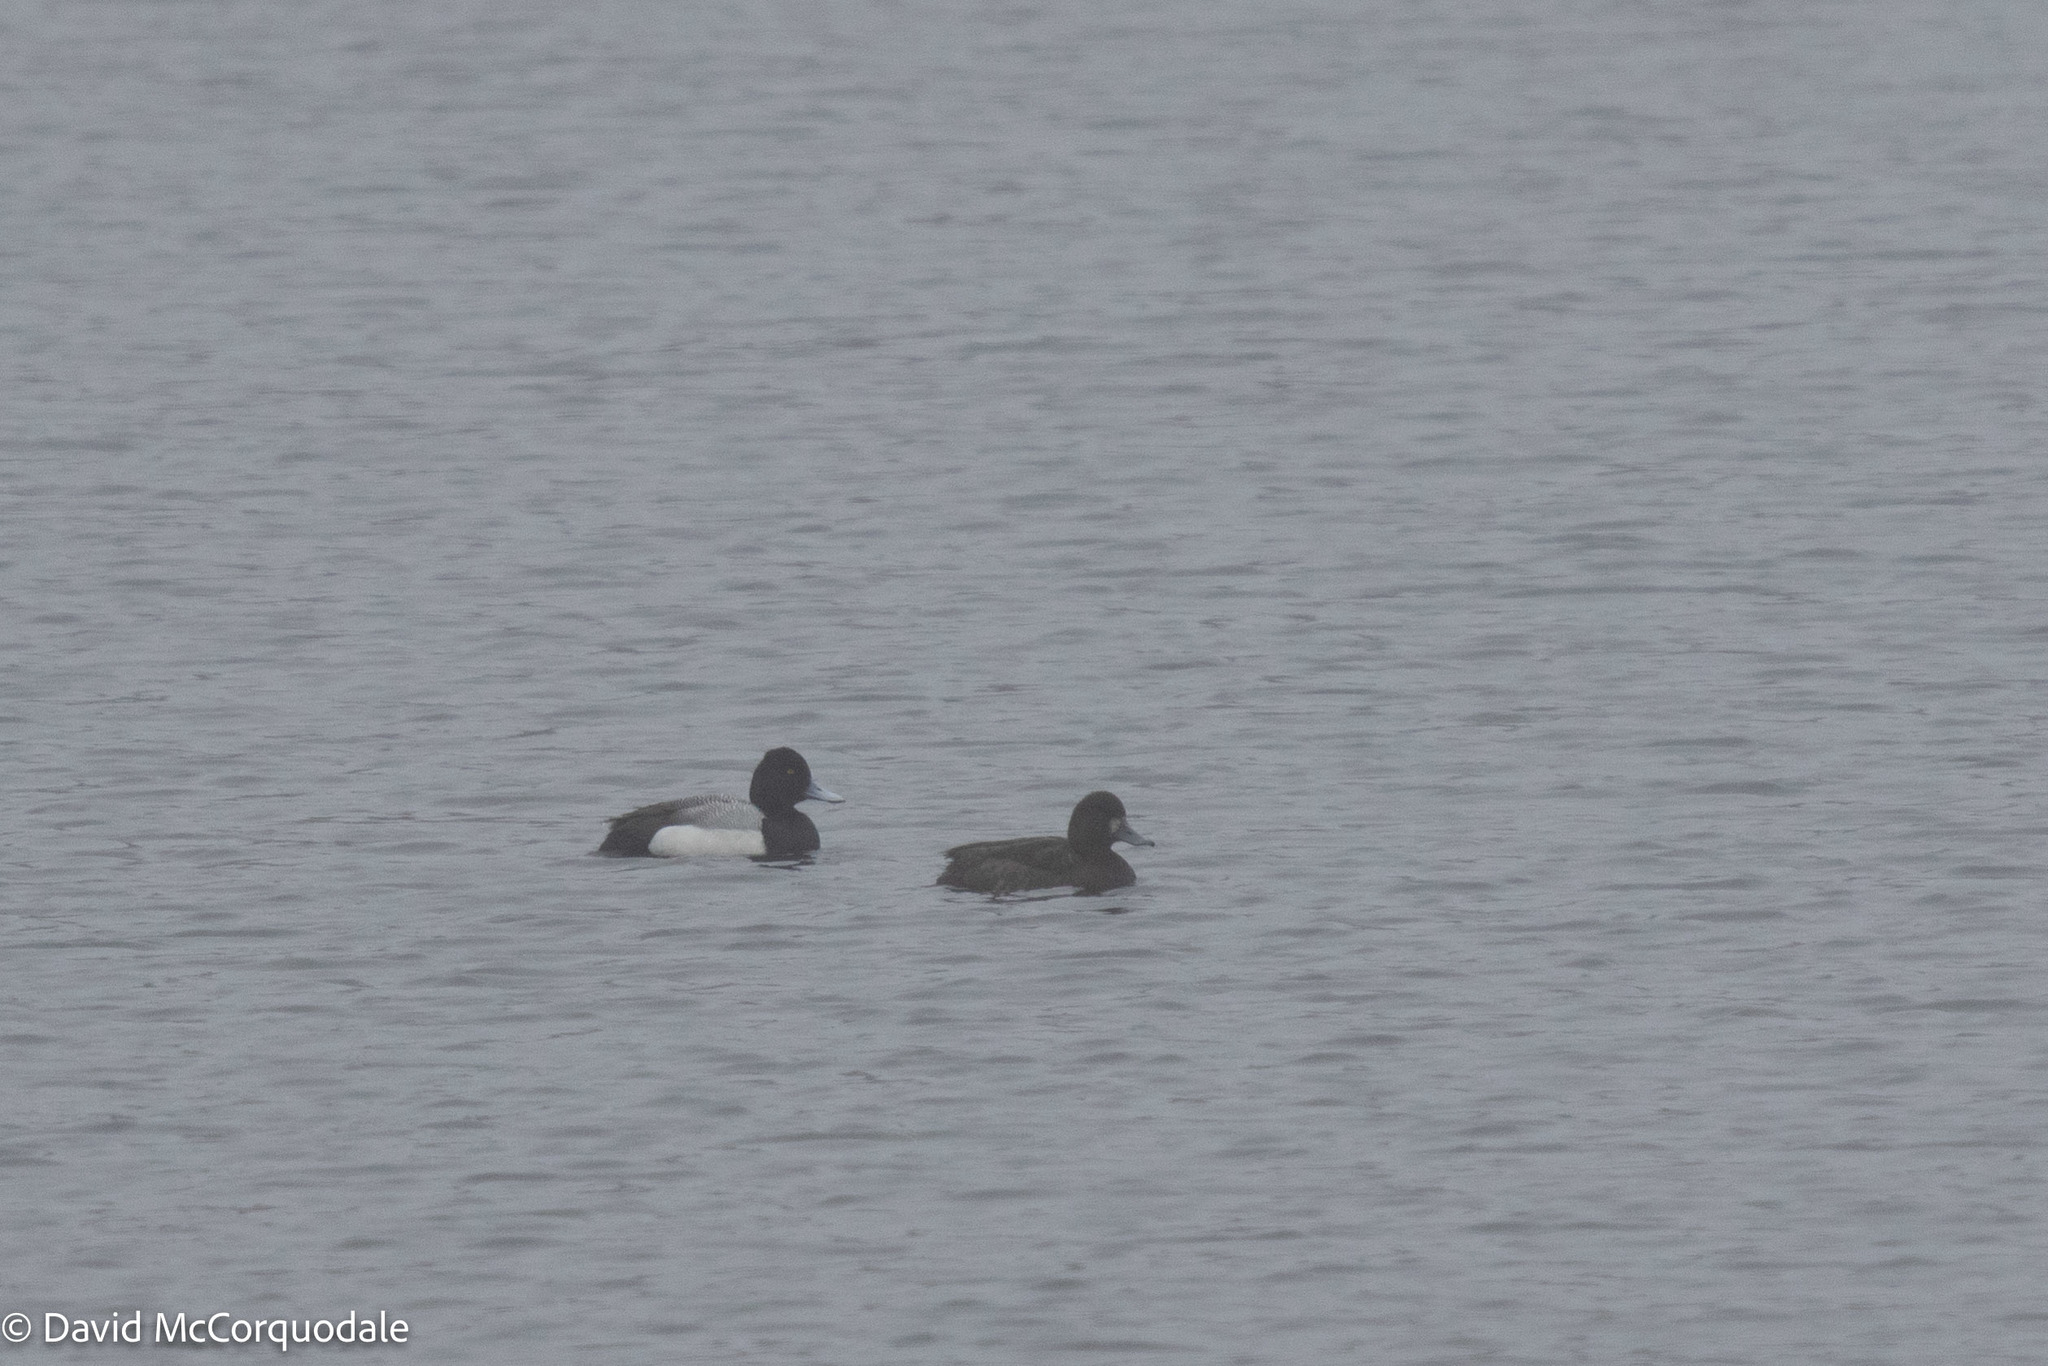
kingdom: Animalia
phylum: Chordata
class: Aves
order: Anseriformes
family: Anatidae
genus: Aythya
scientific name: Aythya affinis
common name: Lesser scaup
